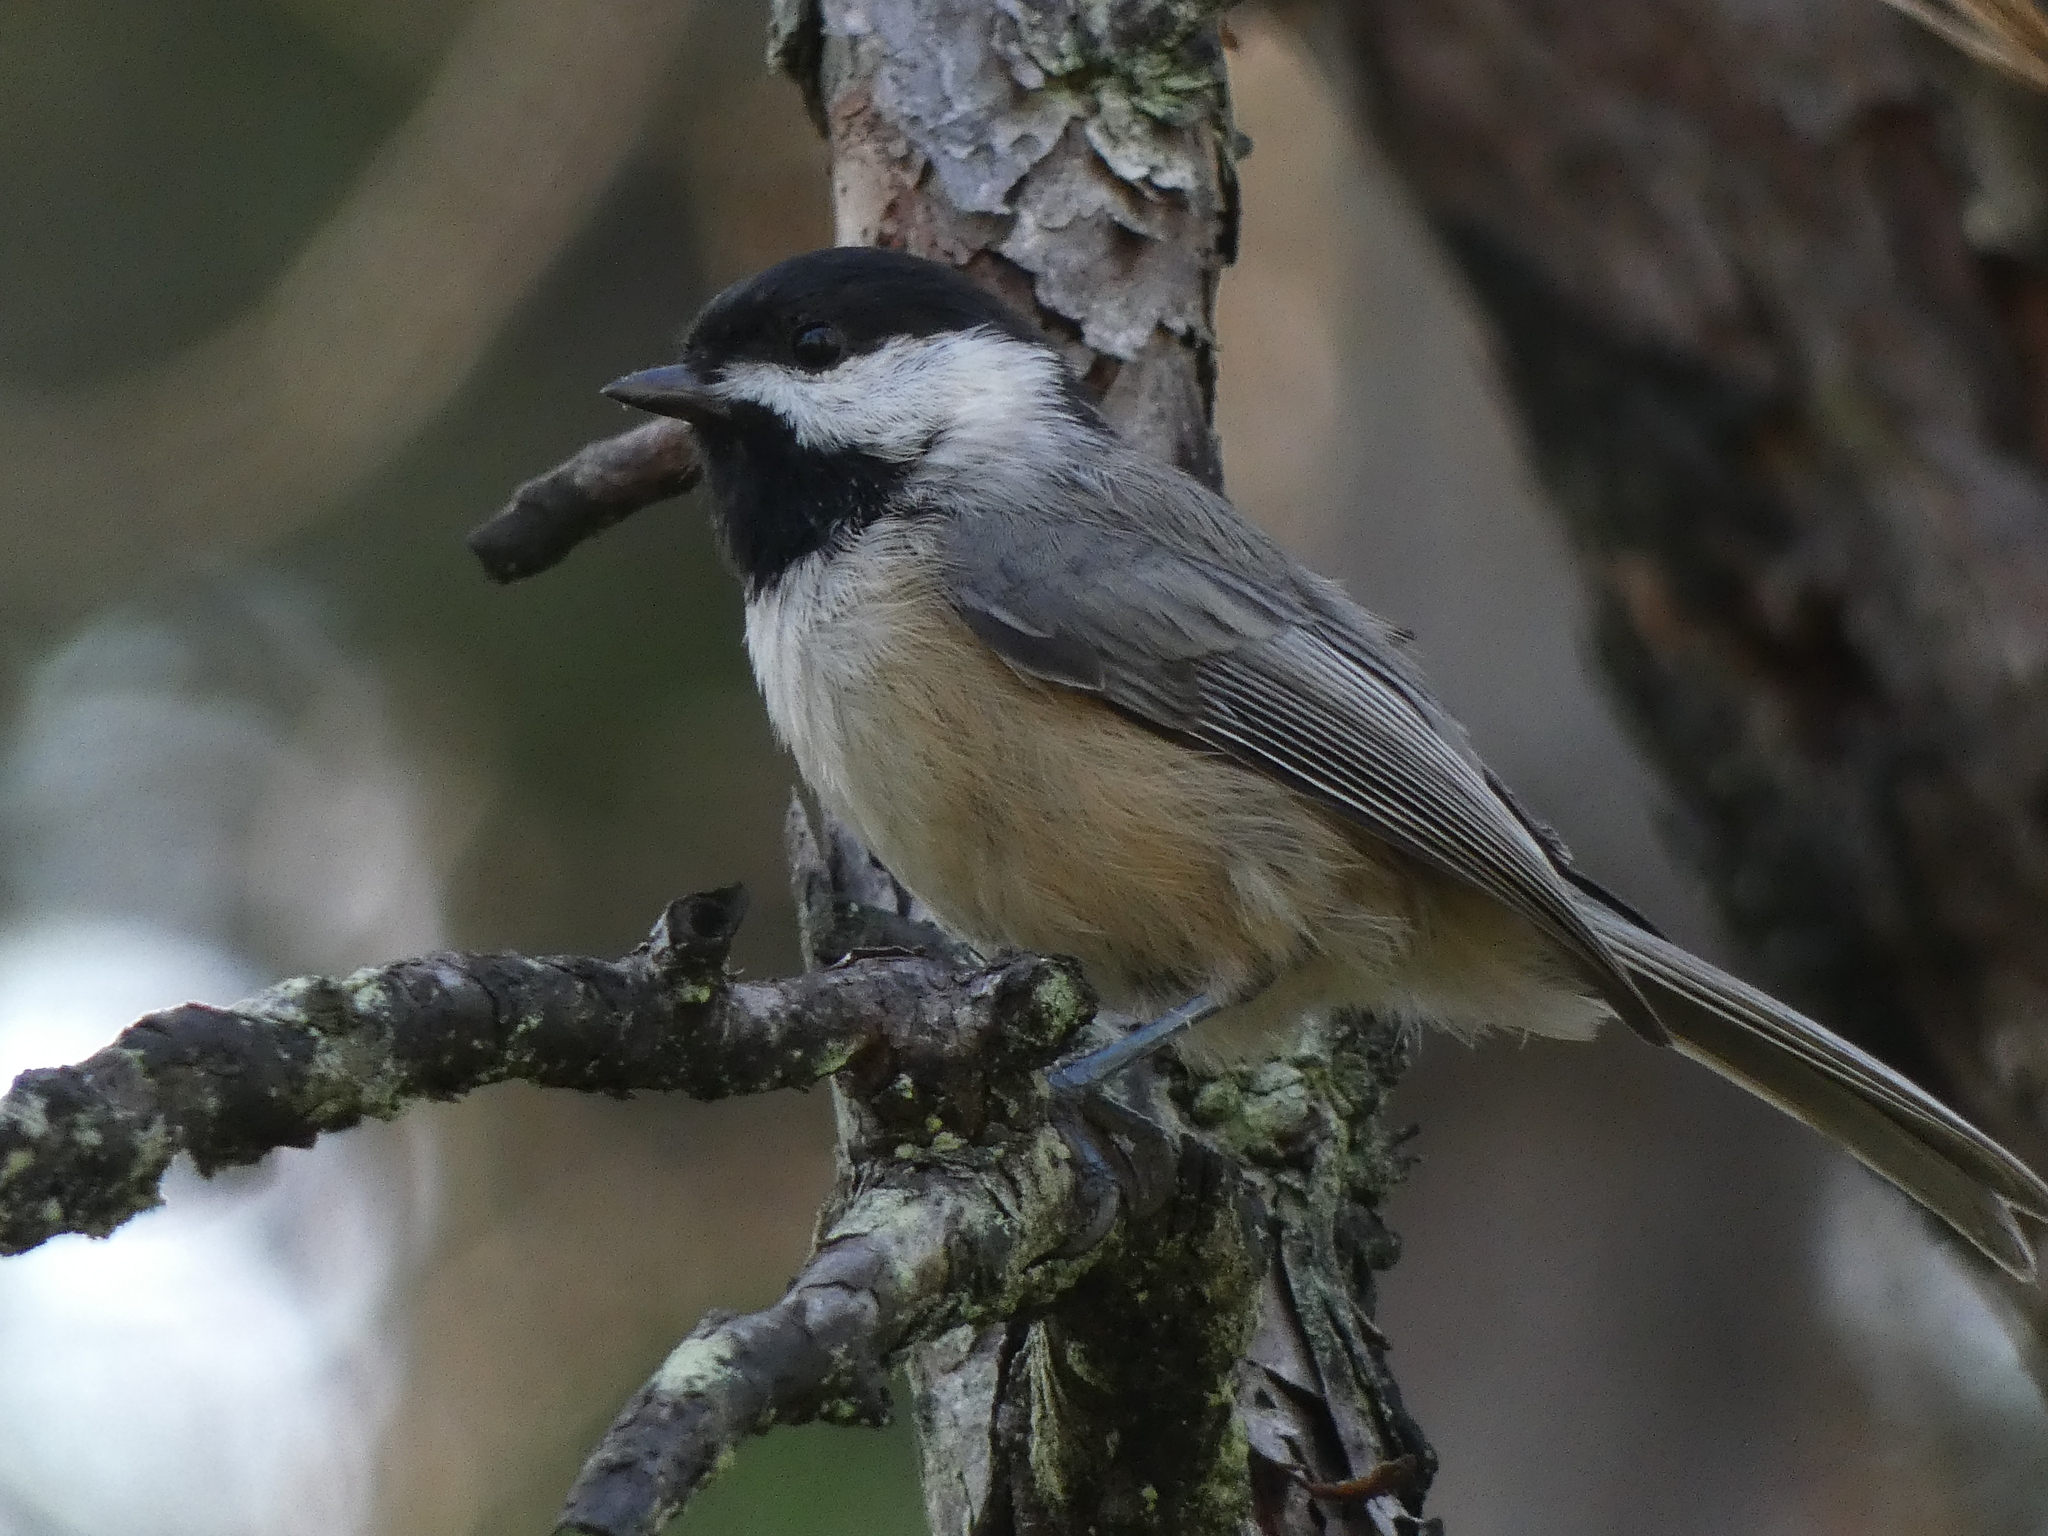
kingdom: Animalia
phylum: Chordata
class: Aves
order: Passeriformes
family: Paridae
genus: Poecile
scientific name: Poecile carolinensis
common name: Carolina chickadee
